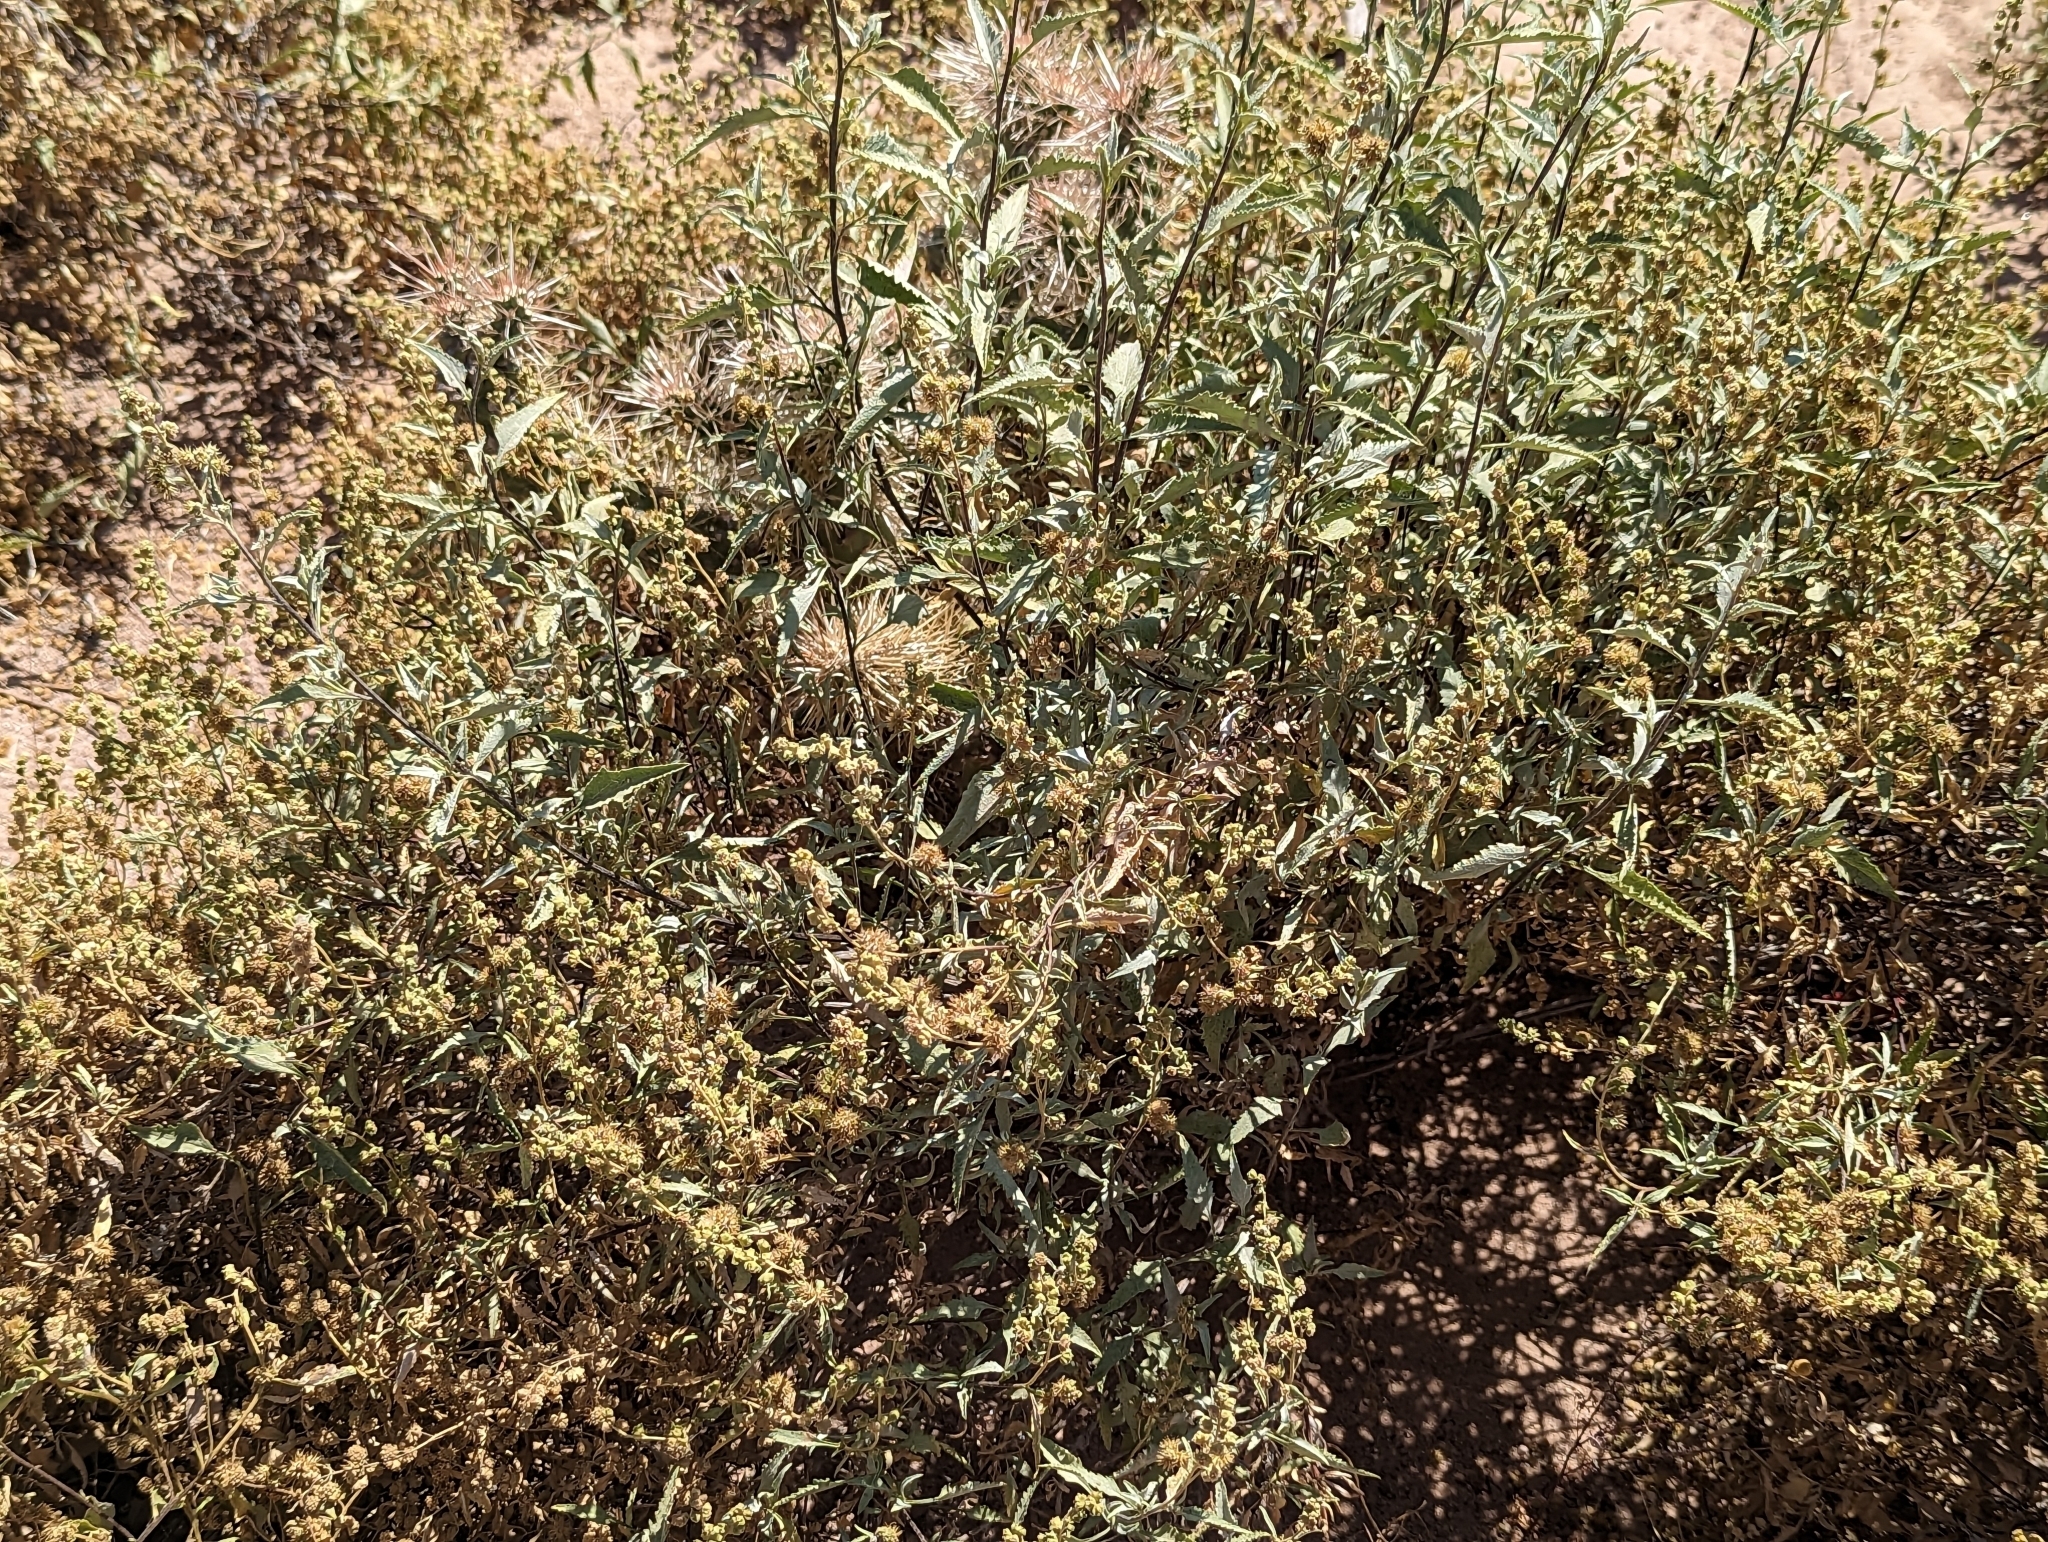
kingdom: Plantae
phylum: Tracheophyta
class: Magnoliopsida
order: Asterales
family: Asteraceae
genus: Ambrosia
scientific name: Ambrosia deltoidea
